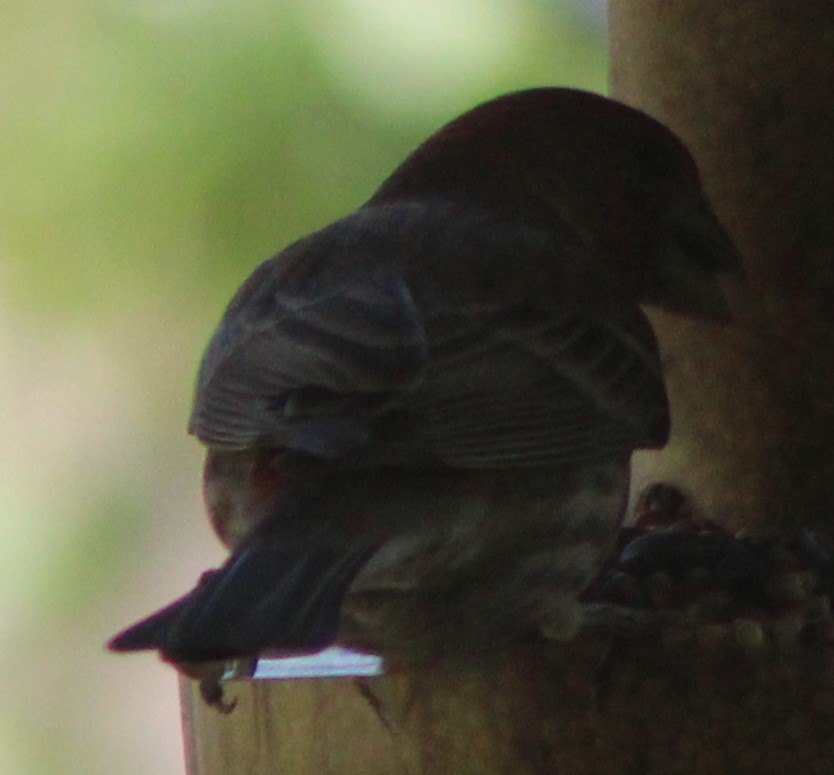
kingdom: Animalia
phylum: Chordata
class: Aves
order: Passeriformes
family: Fringillidae
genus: Haemorhous
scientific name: Haemorhous mexicanus
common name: House finch
